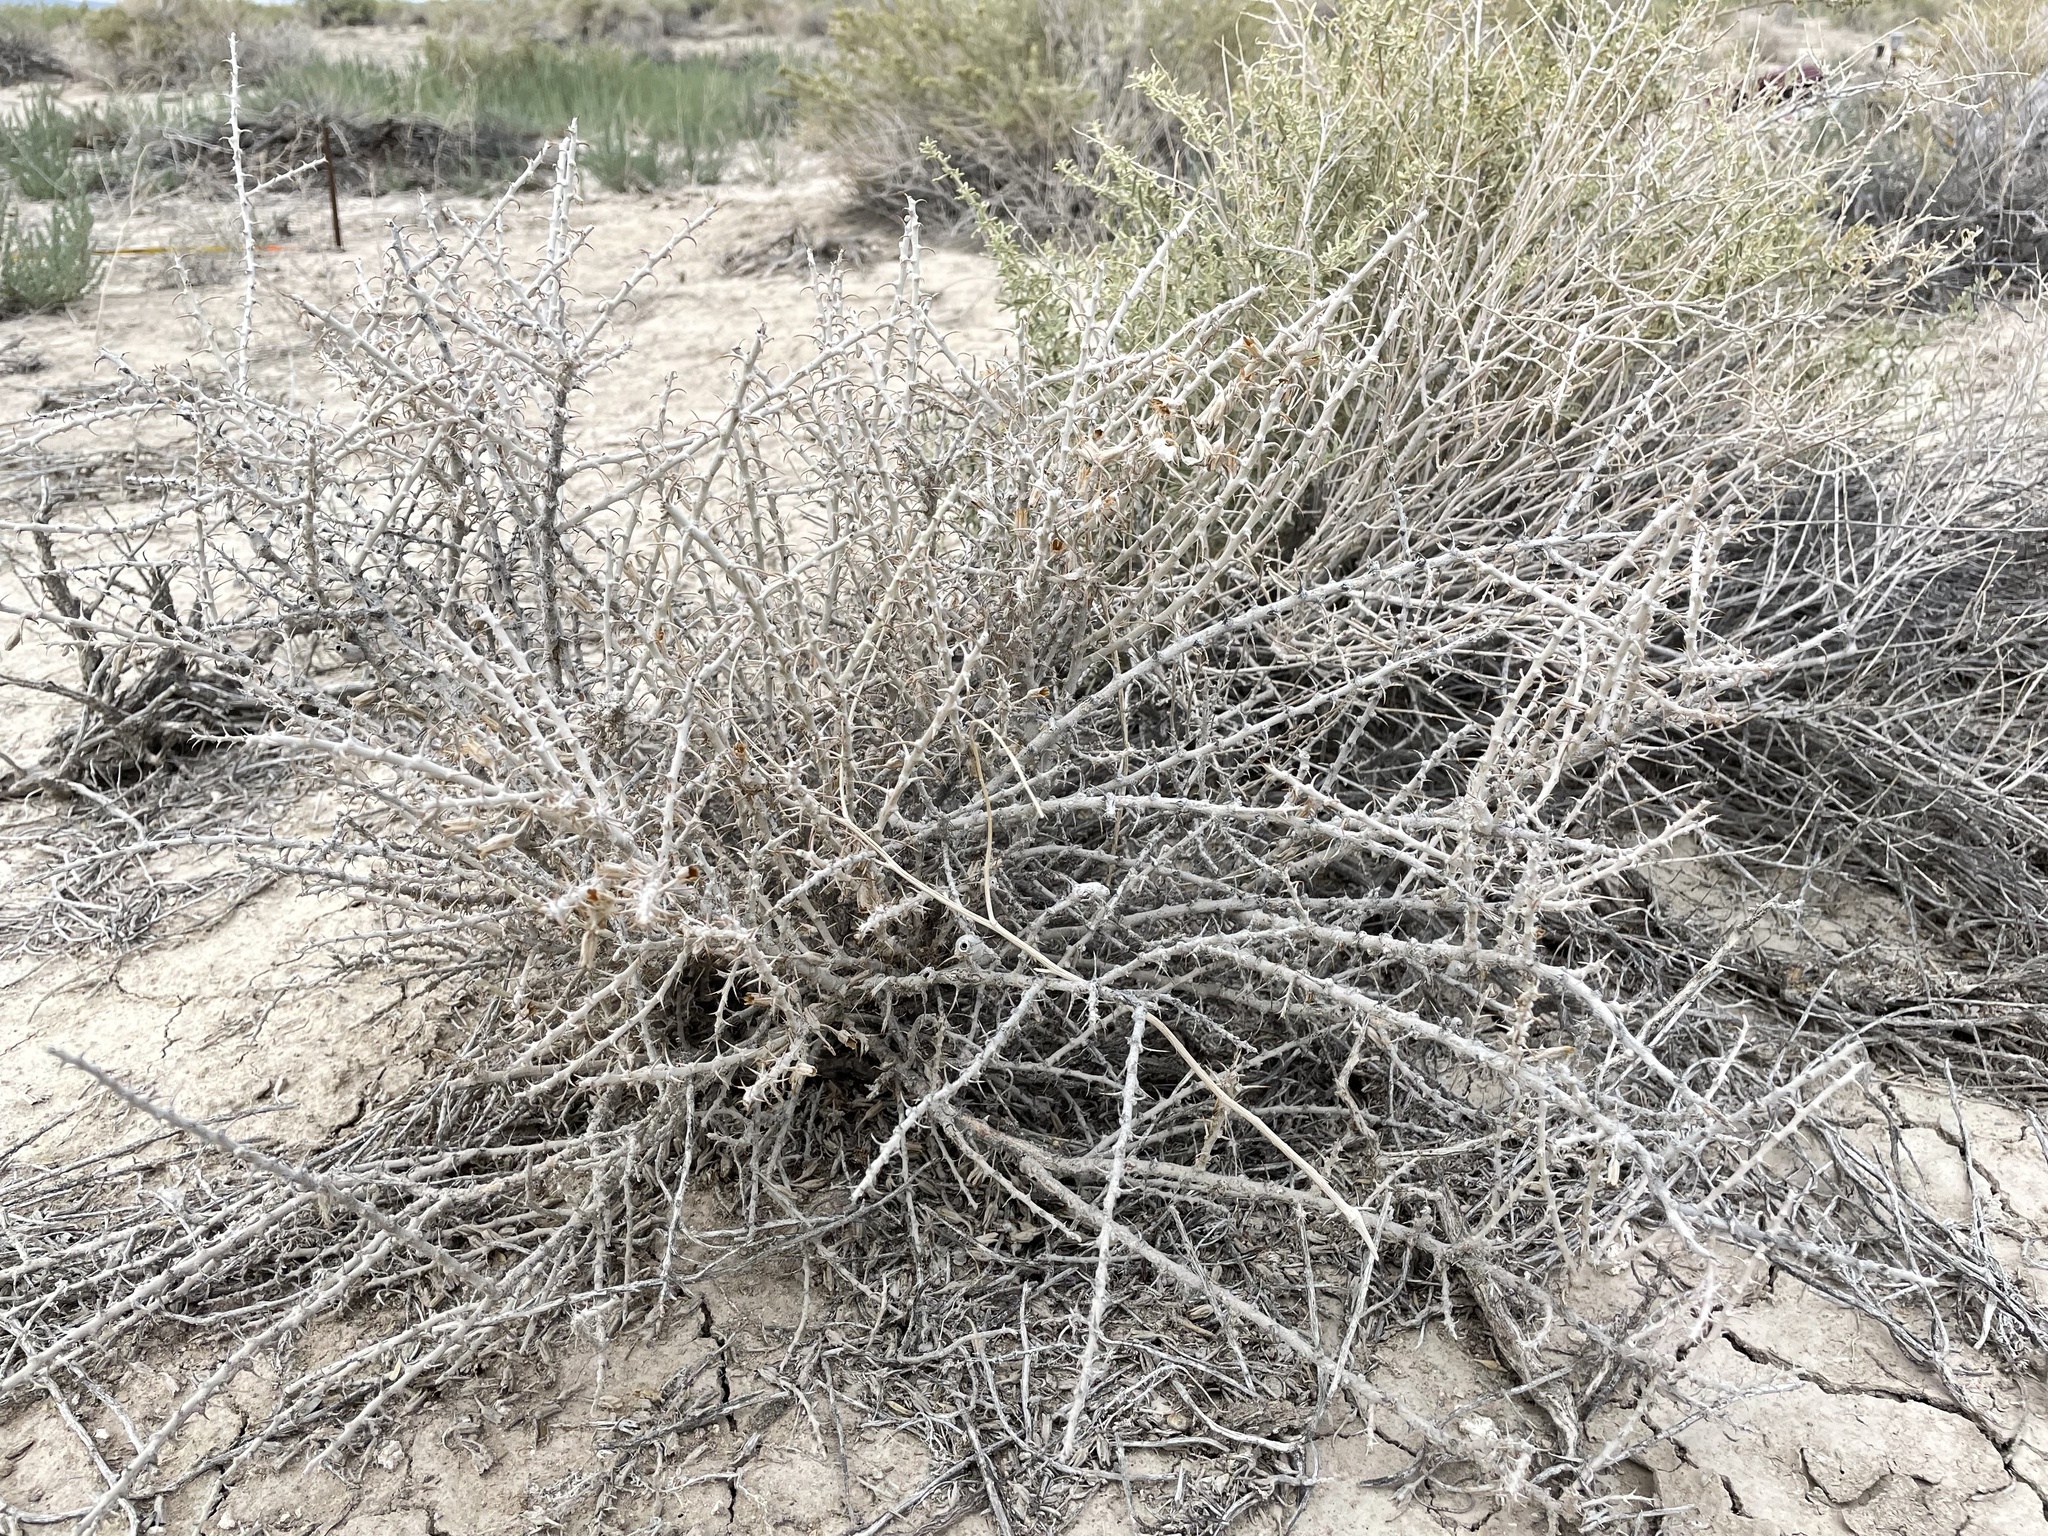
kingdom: Plantae
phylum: Tracheophyta
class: Magnoliopsida
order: Asterales
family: Asteraceae
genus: Tetradymia
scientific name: Tetradymia spinosa
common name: Thorny horsebrush
